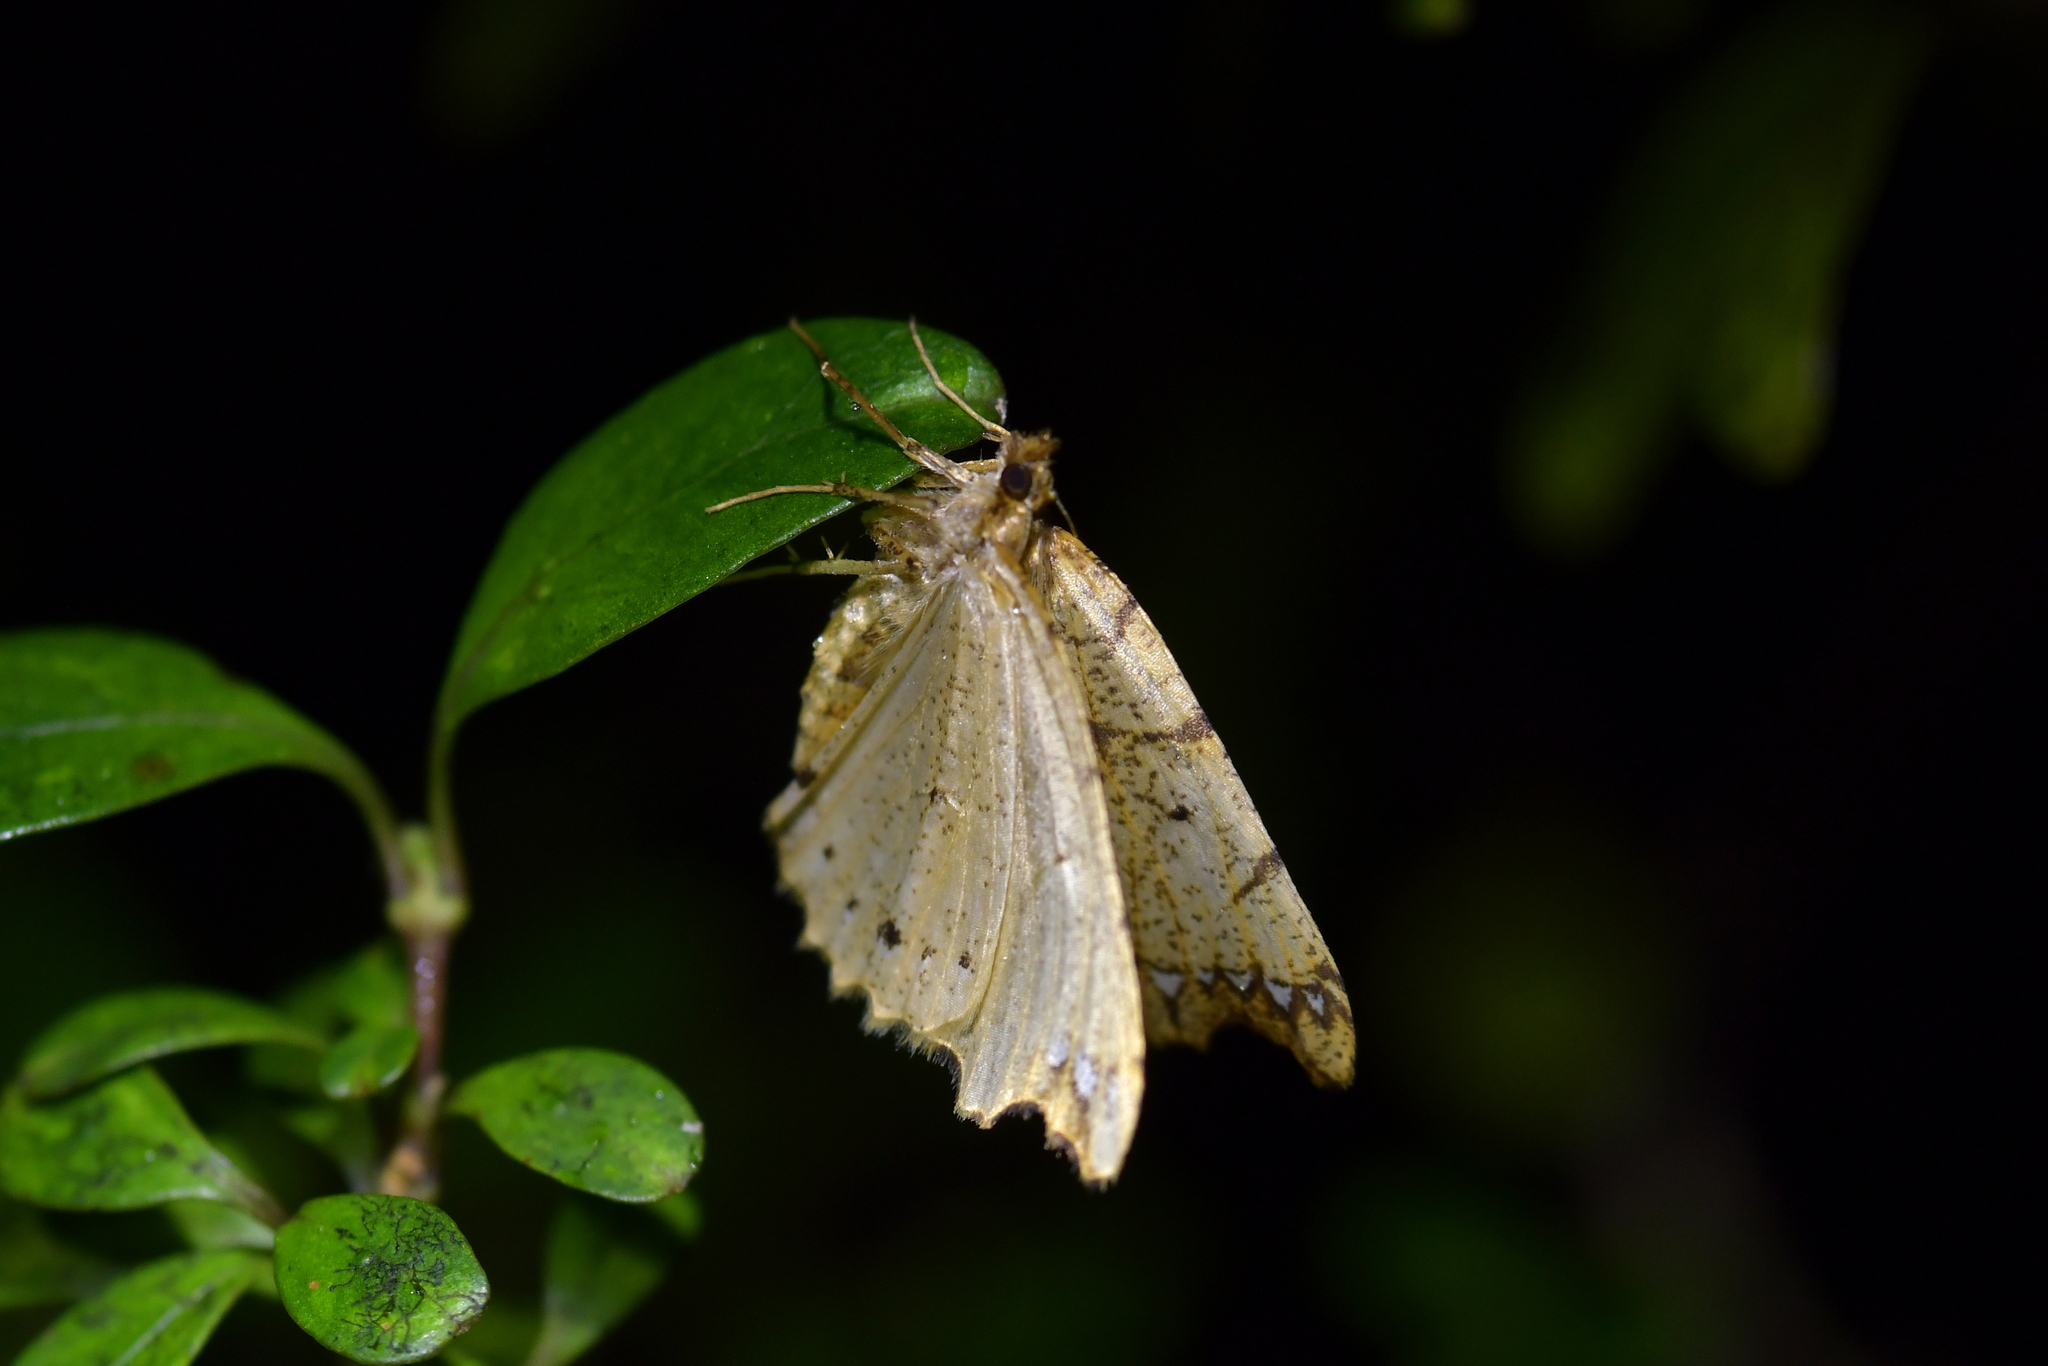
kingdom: Animalia
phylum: Arthropoda
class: Insecta
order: Lepidoptera
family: Geometridae
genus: Chalastra
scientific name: Chalastra pellurgata
